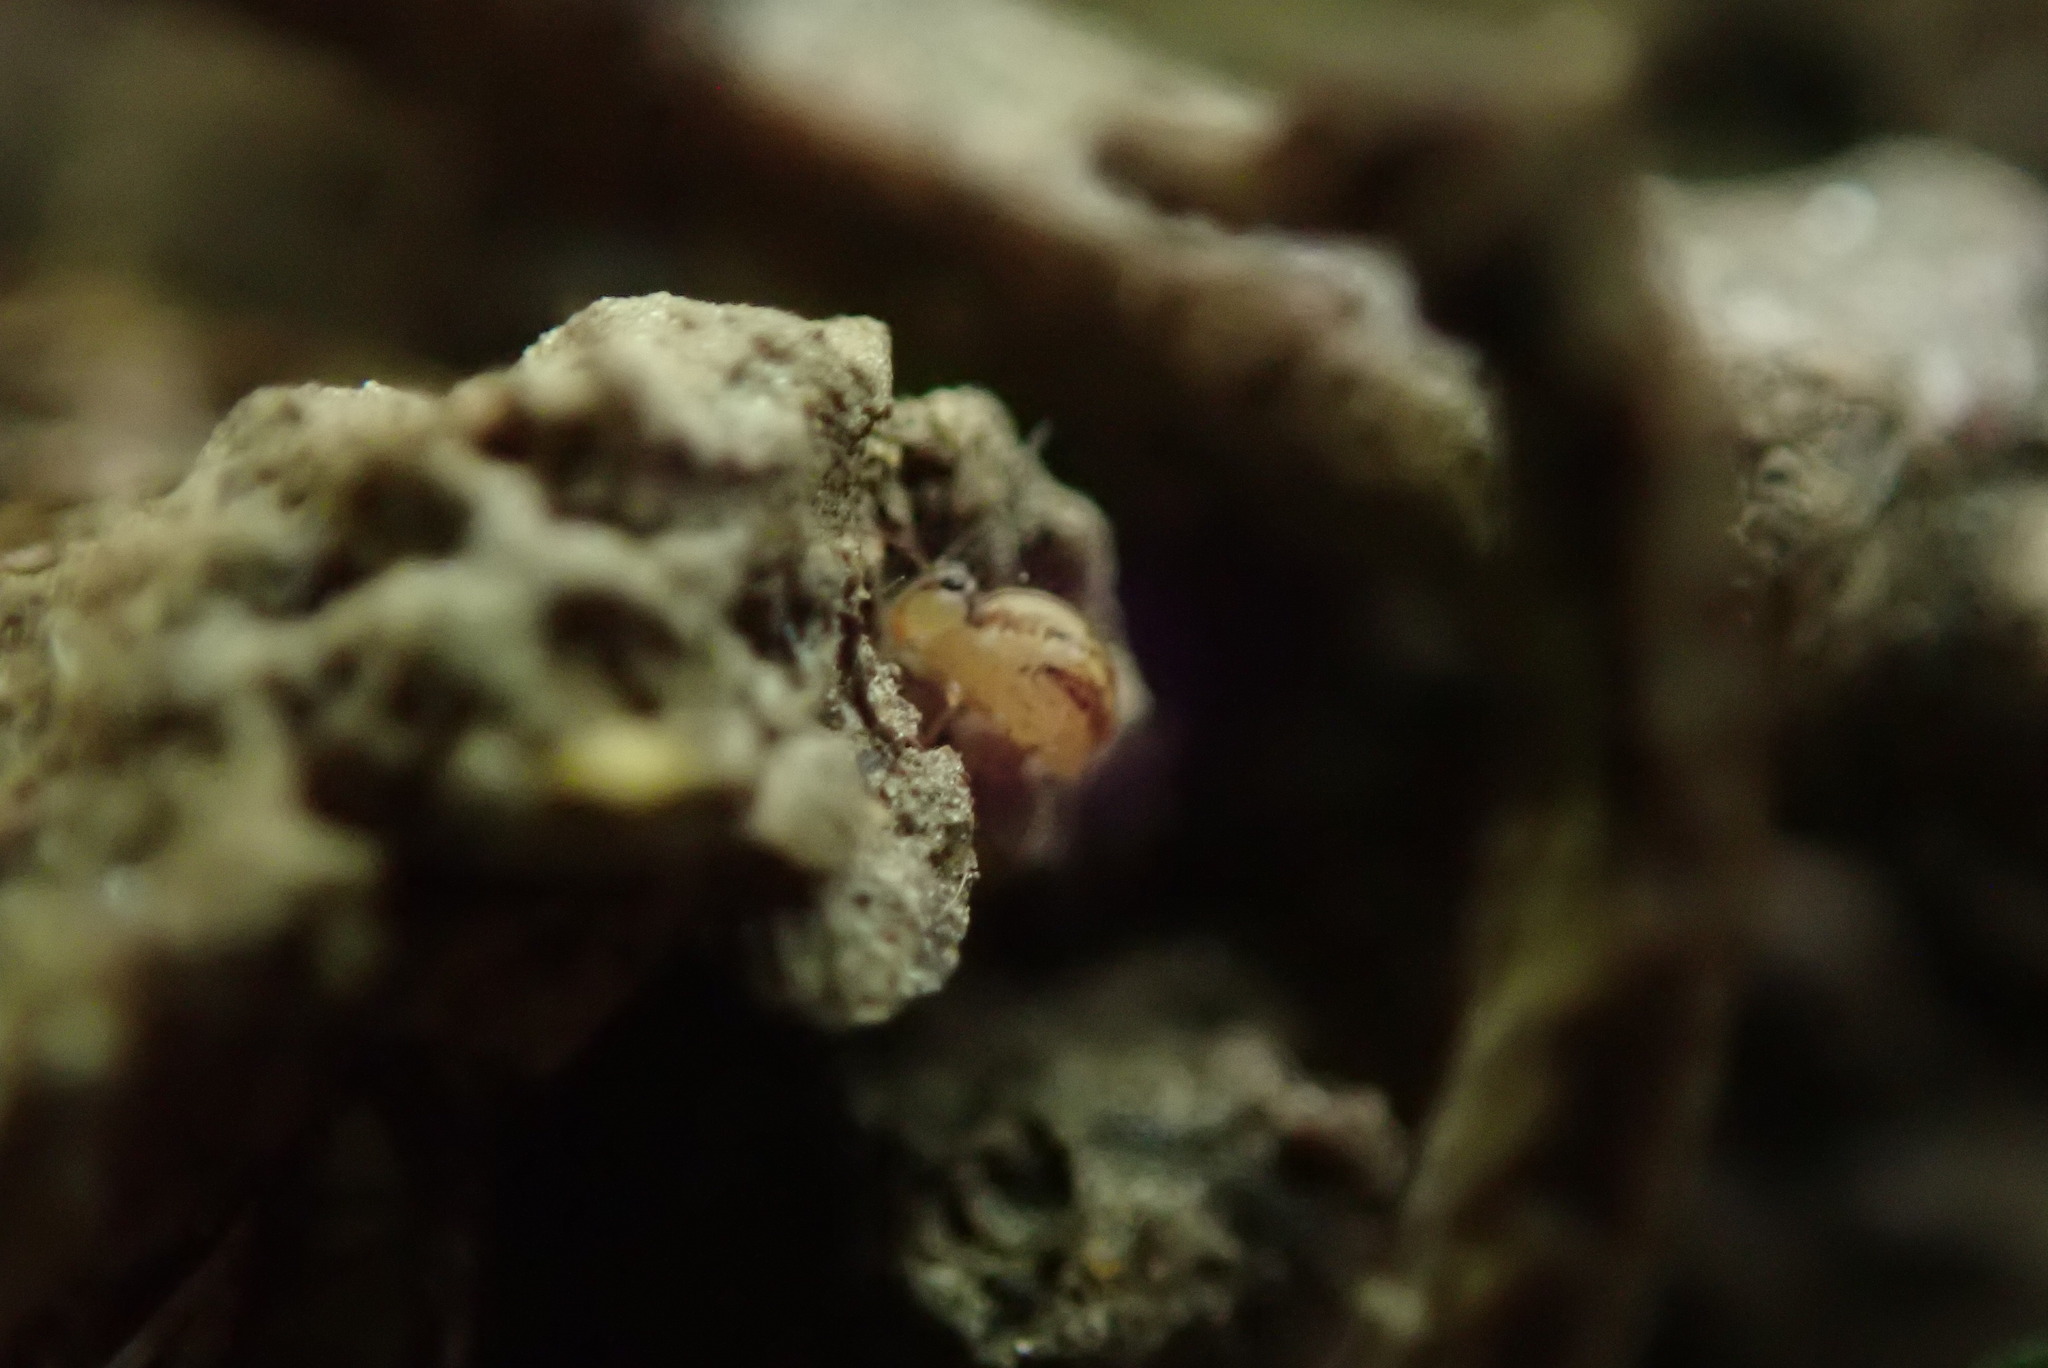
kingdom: Animalia
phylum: Arthropoda
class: Collembola
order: Symphypleona
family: Sminthuridae
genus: Sminthurus
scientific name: Sminthurus mencenbergae
